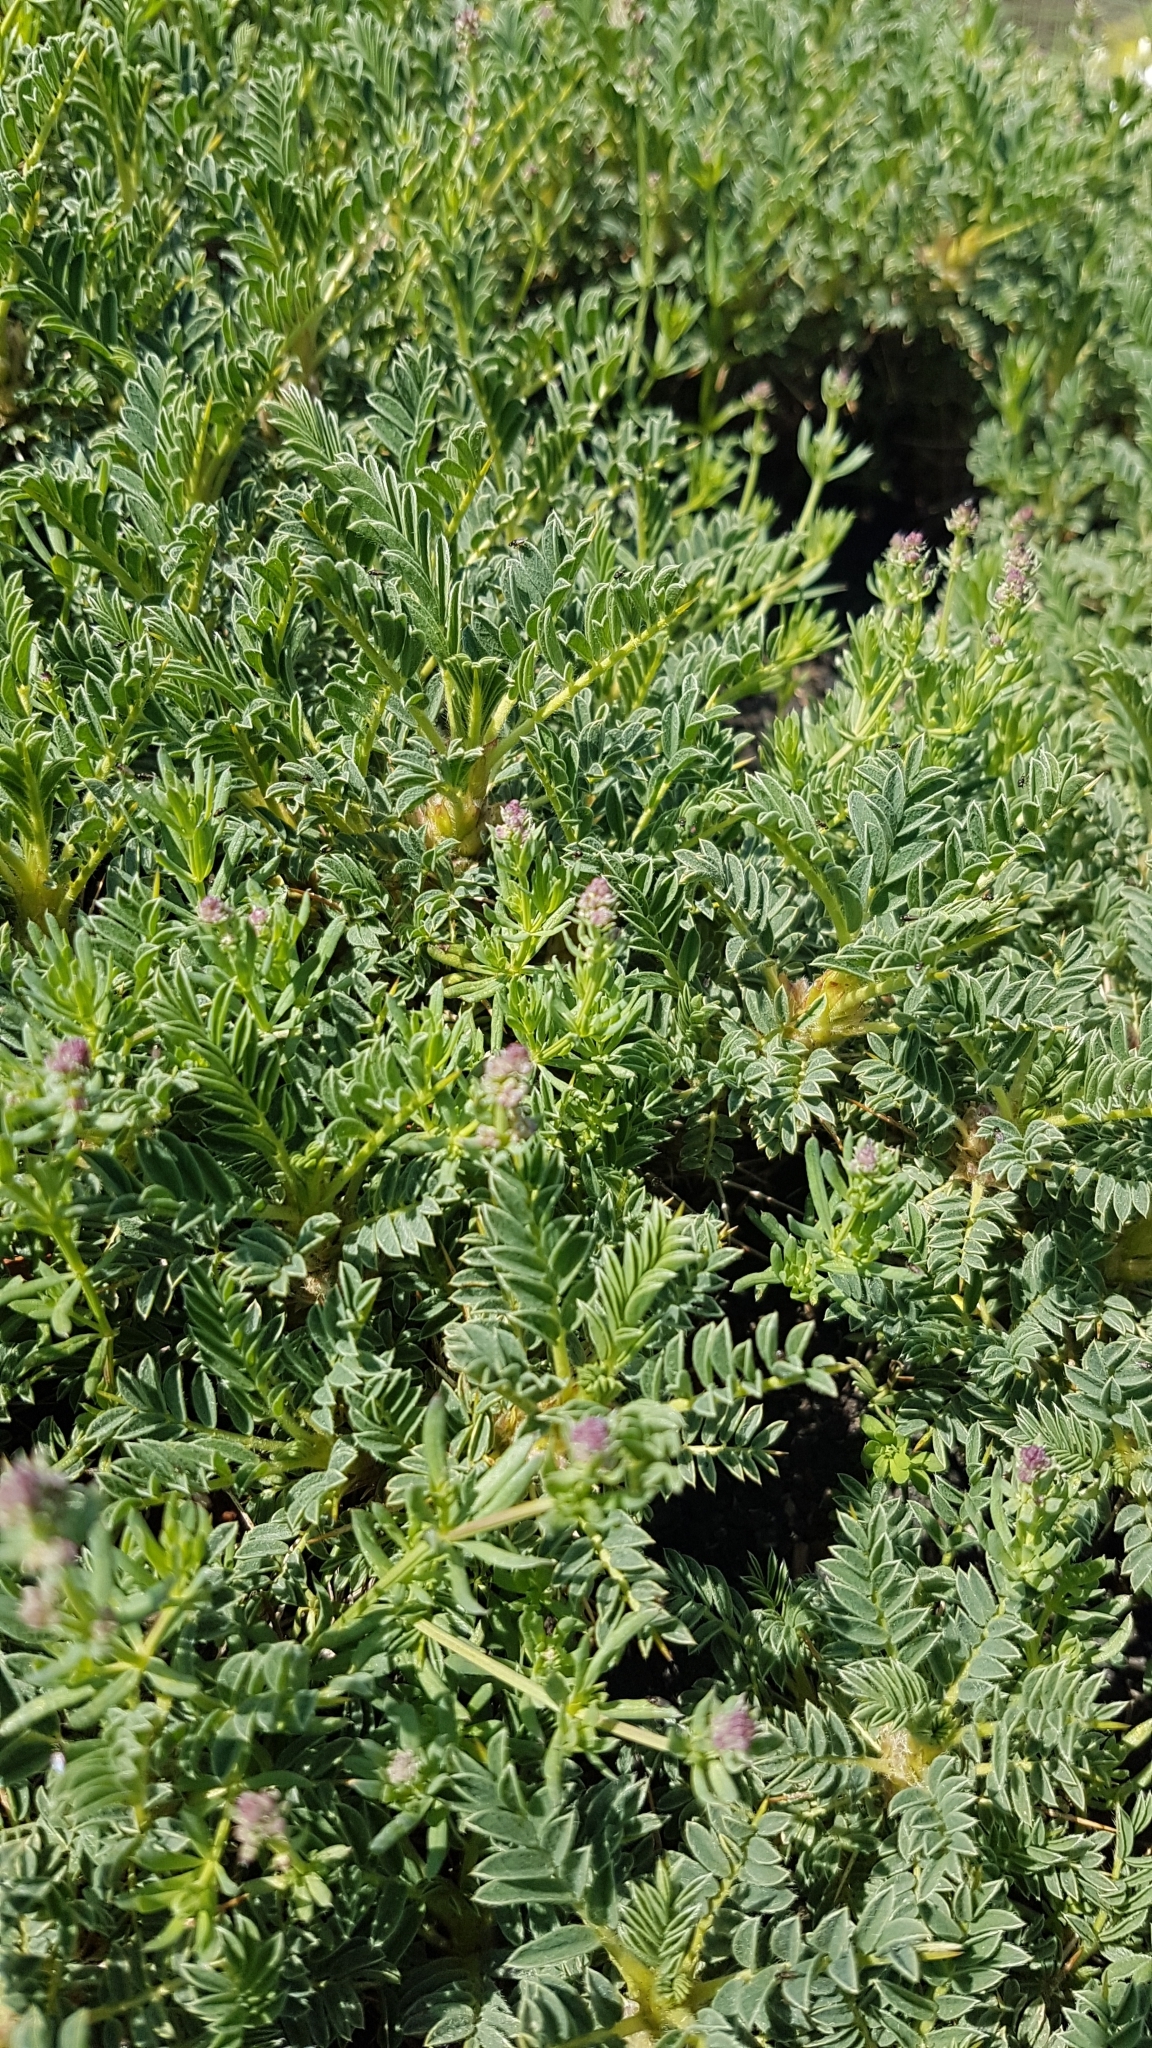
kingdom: Plantae
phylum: Tracheophyta
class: Magnoliopsida
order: Fabales
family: Fabaceae
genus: Astragalus
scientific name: Astragalus siculus
